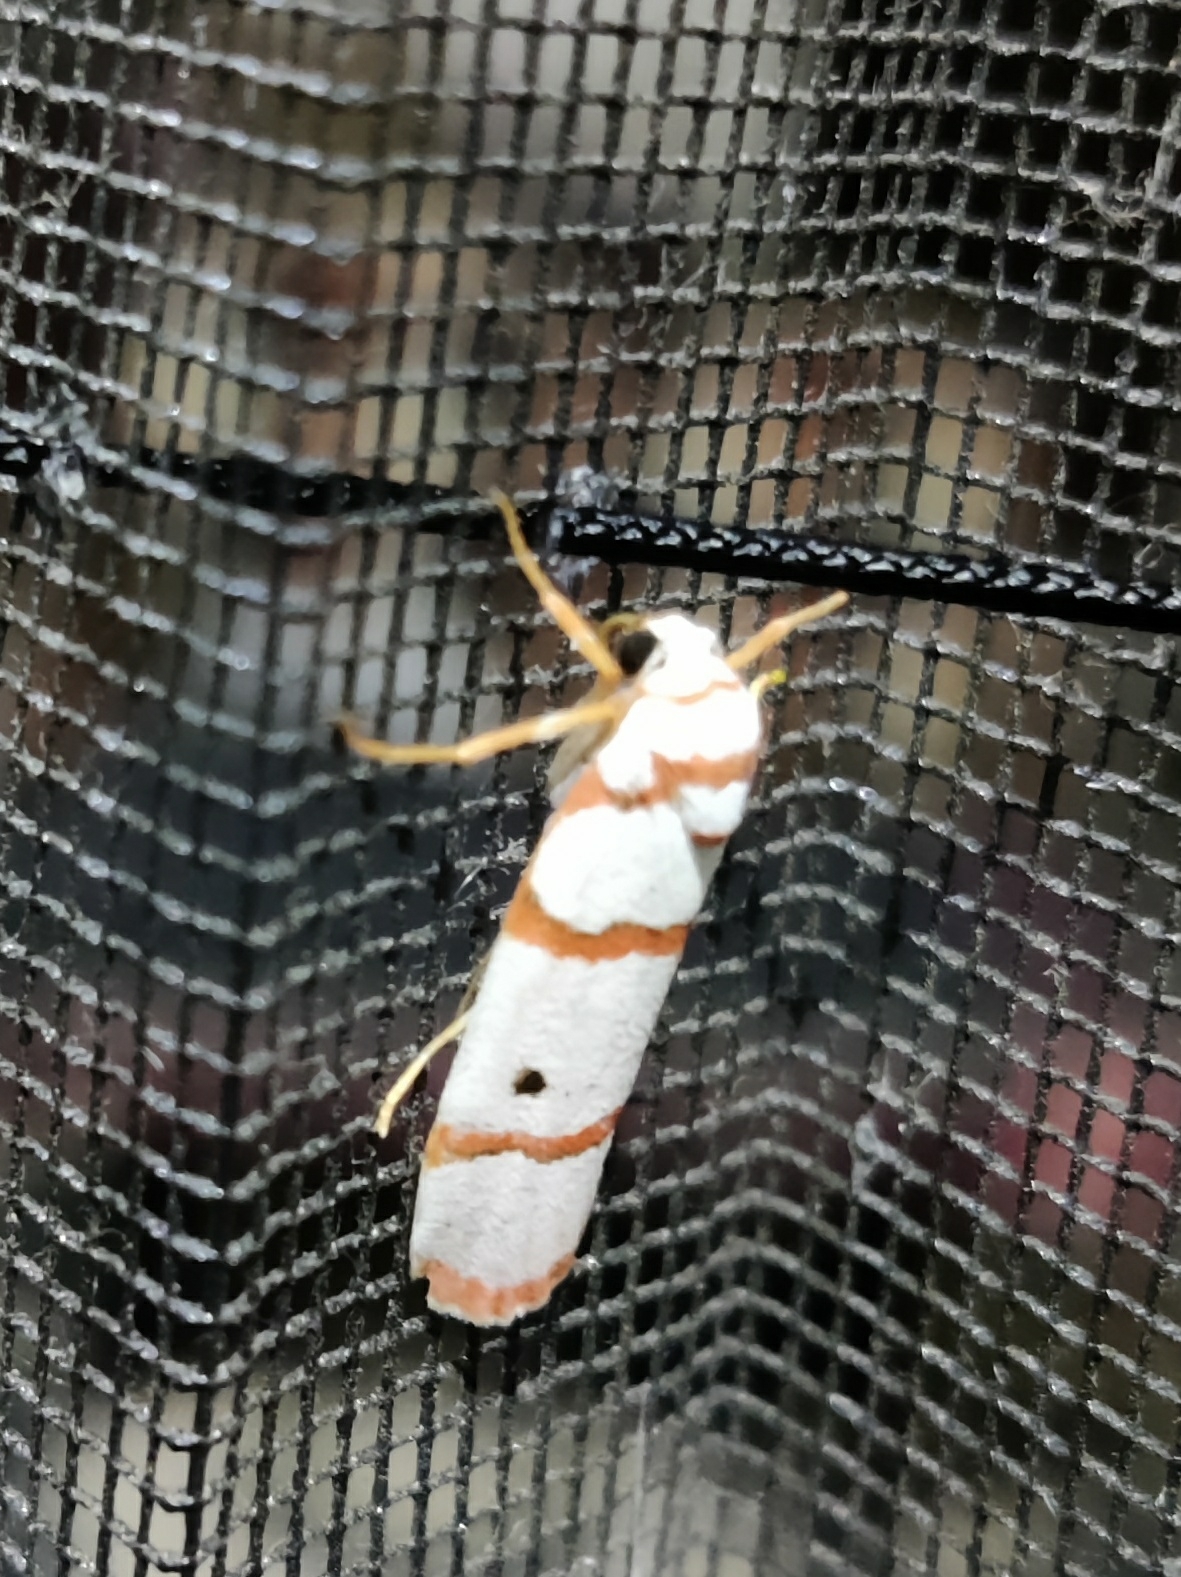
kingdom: Animalia
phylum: Arthropoda
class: Insecta
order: Lepidoptera
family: Erebidae
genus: Cyana
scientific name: Cyana peregrina
